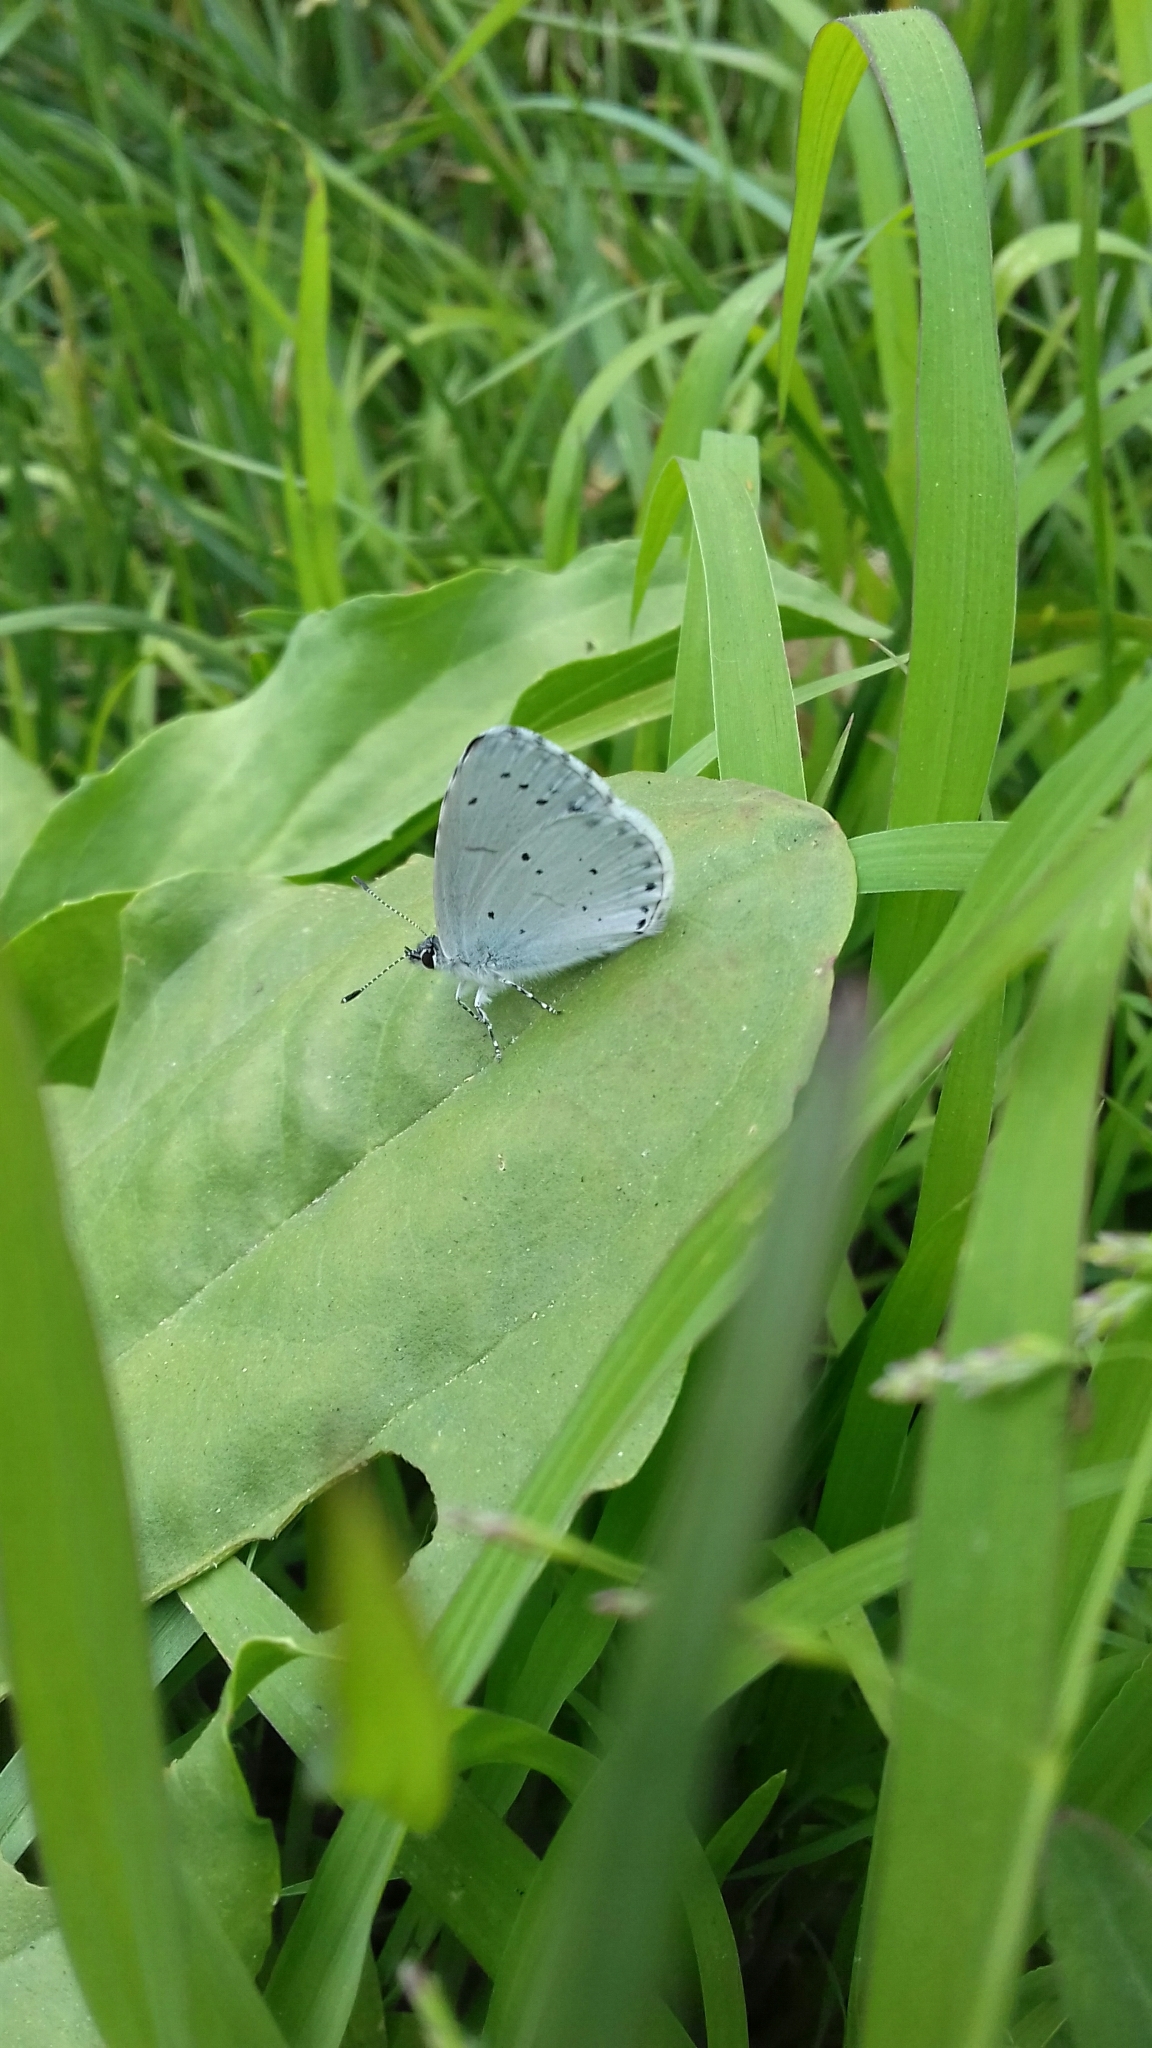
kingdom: Animalia
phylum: Arthropoda
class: Insecta
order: Lepidoptera
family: Lycaenidae
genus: Celastrina
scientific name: Celastrina argiolus
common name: Holly blue
